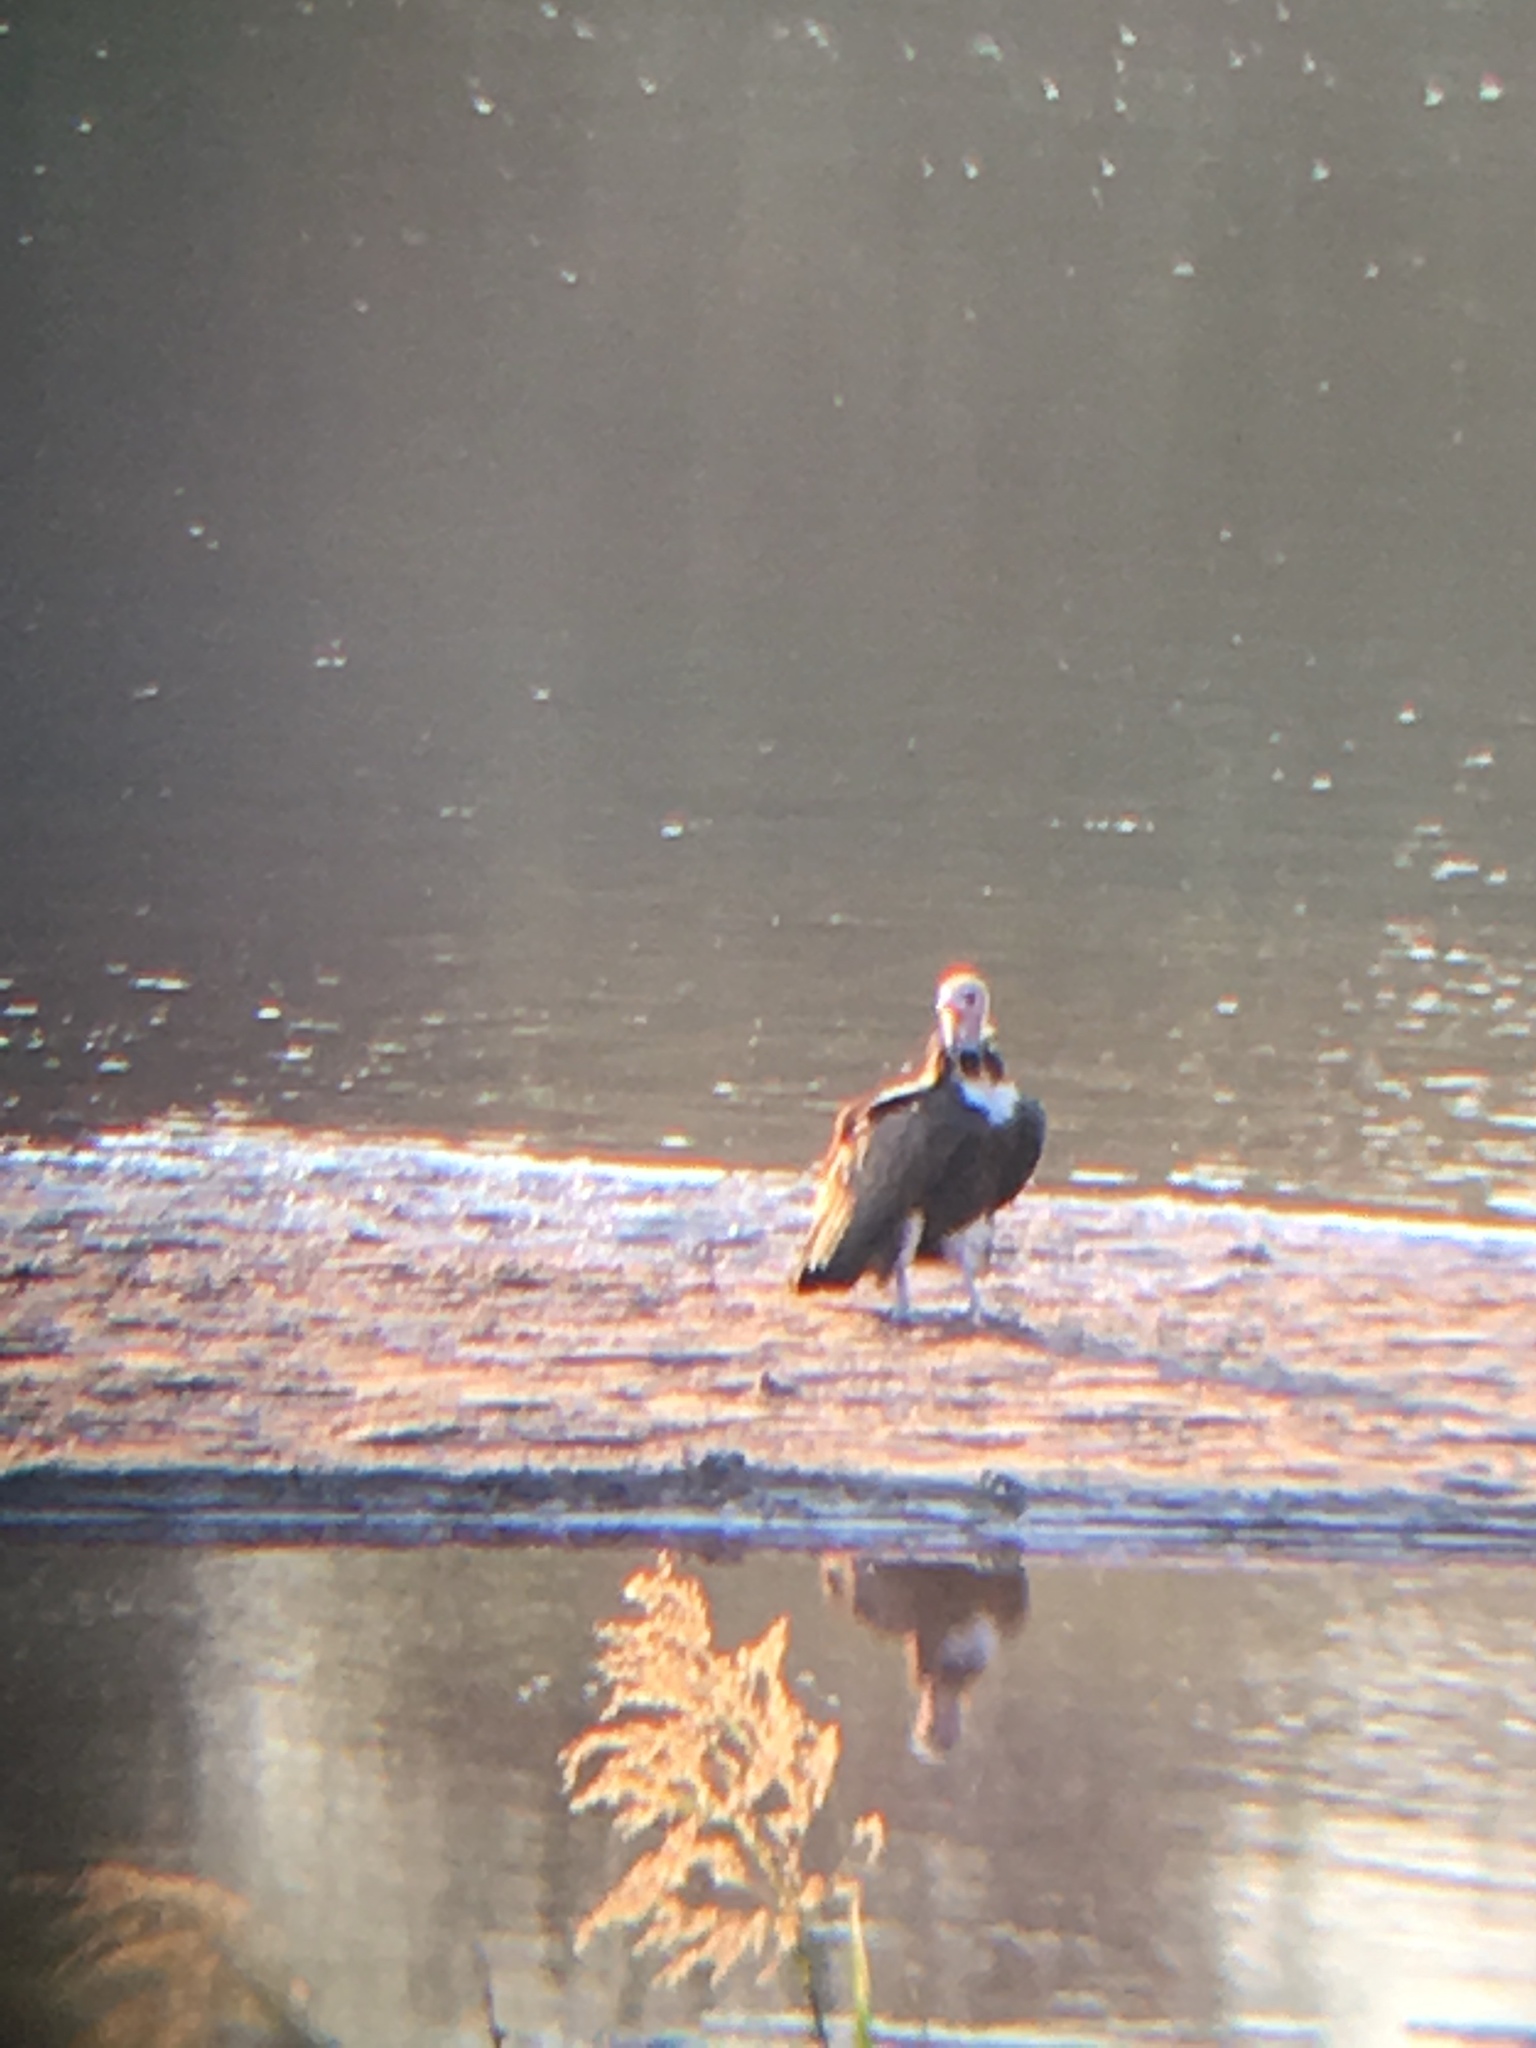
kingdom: Animalia
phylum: Chordata
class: Aves
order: Accipitriformes
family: Accipitridae
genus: Necrosyrtes
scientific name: Necrosyrtes monachus
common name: Hooded vulture
